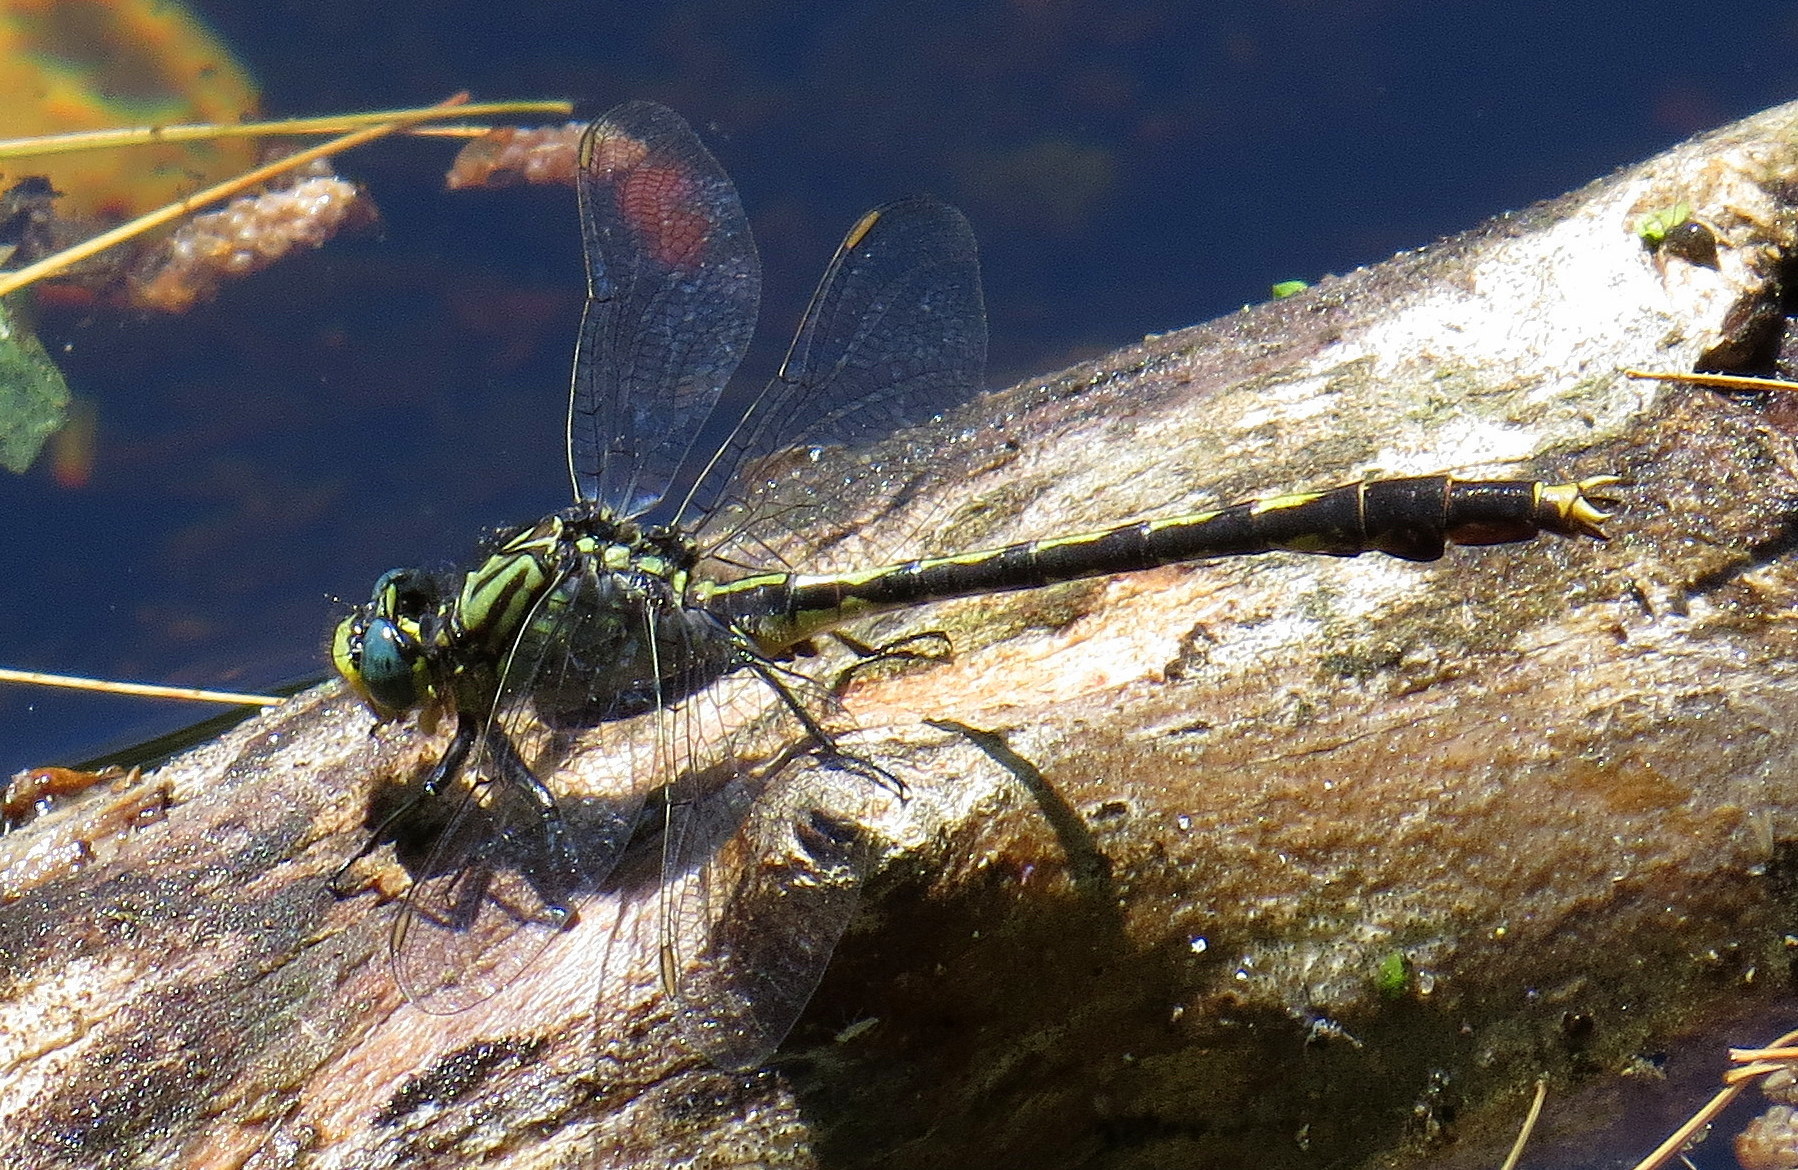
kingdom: Animalia
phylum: Arthropoda
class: Insecta
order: Odonata
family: Gomphidae
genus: Arigomphus
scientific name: Arigomphus villosipes
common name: Unicorn clubtail
